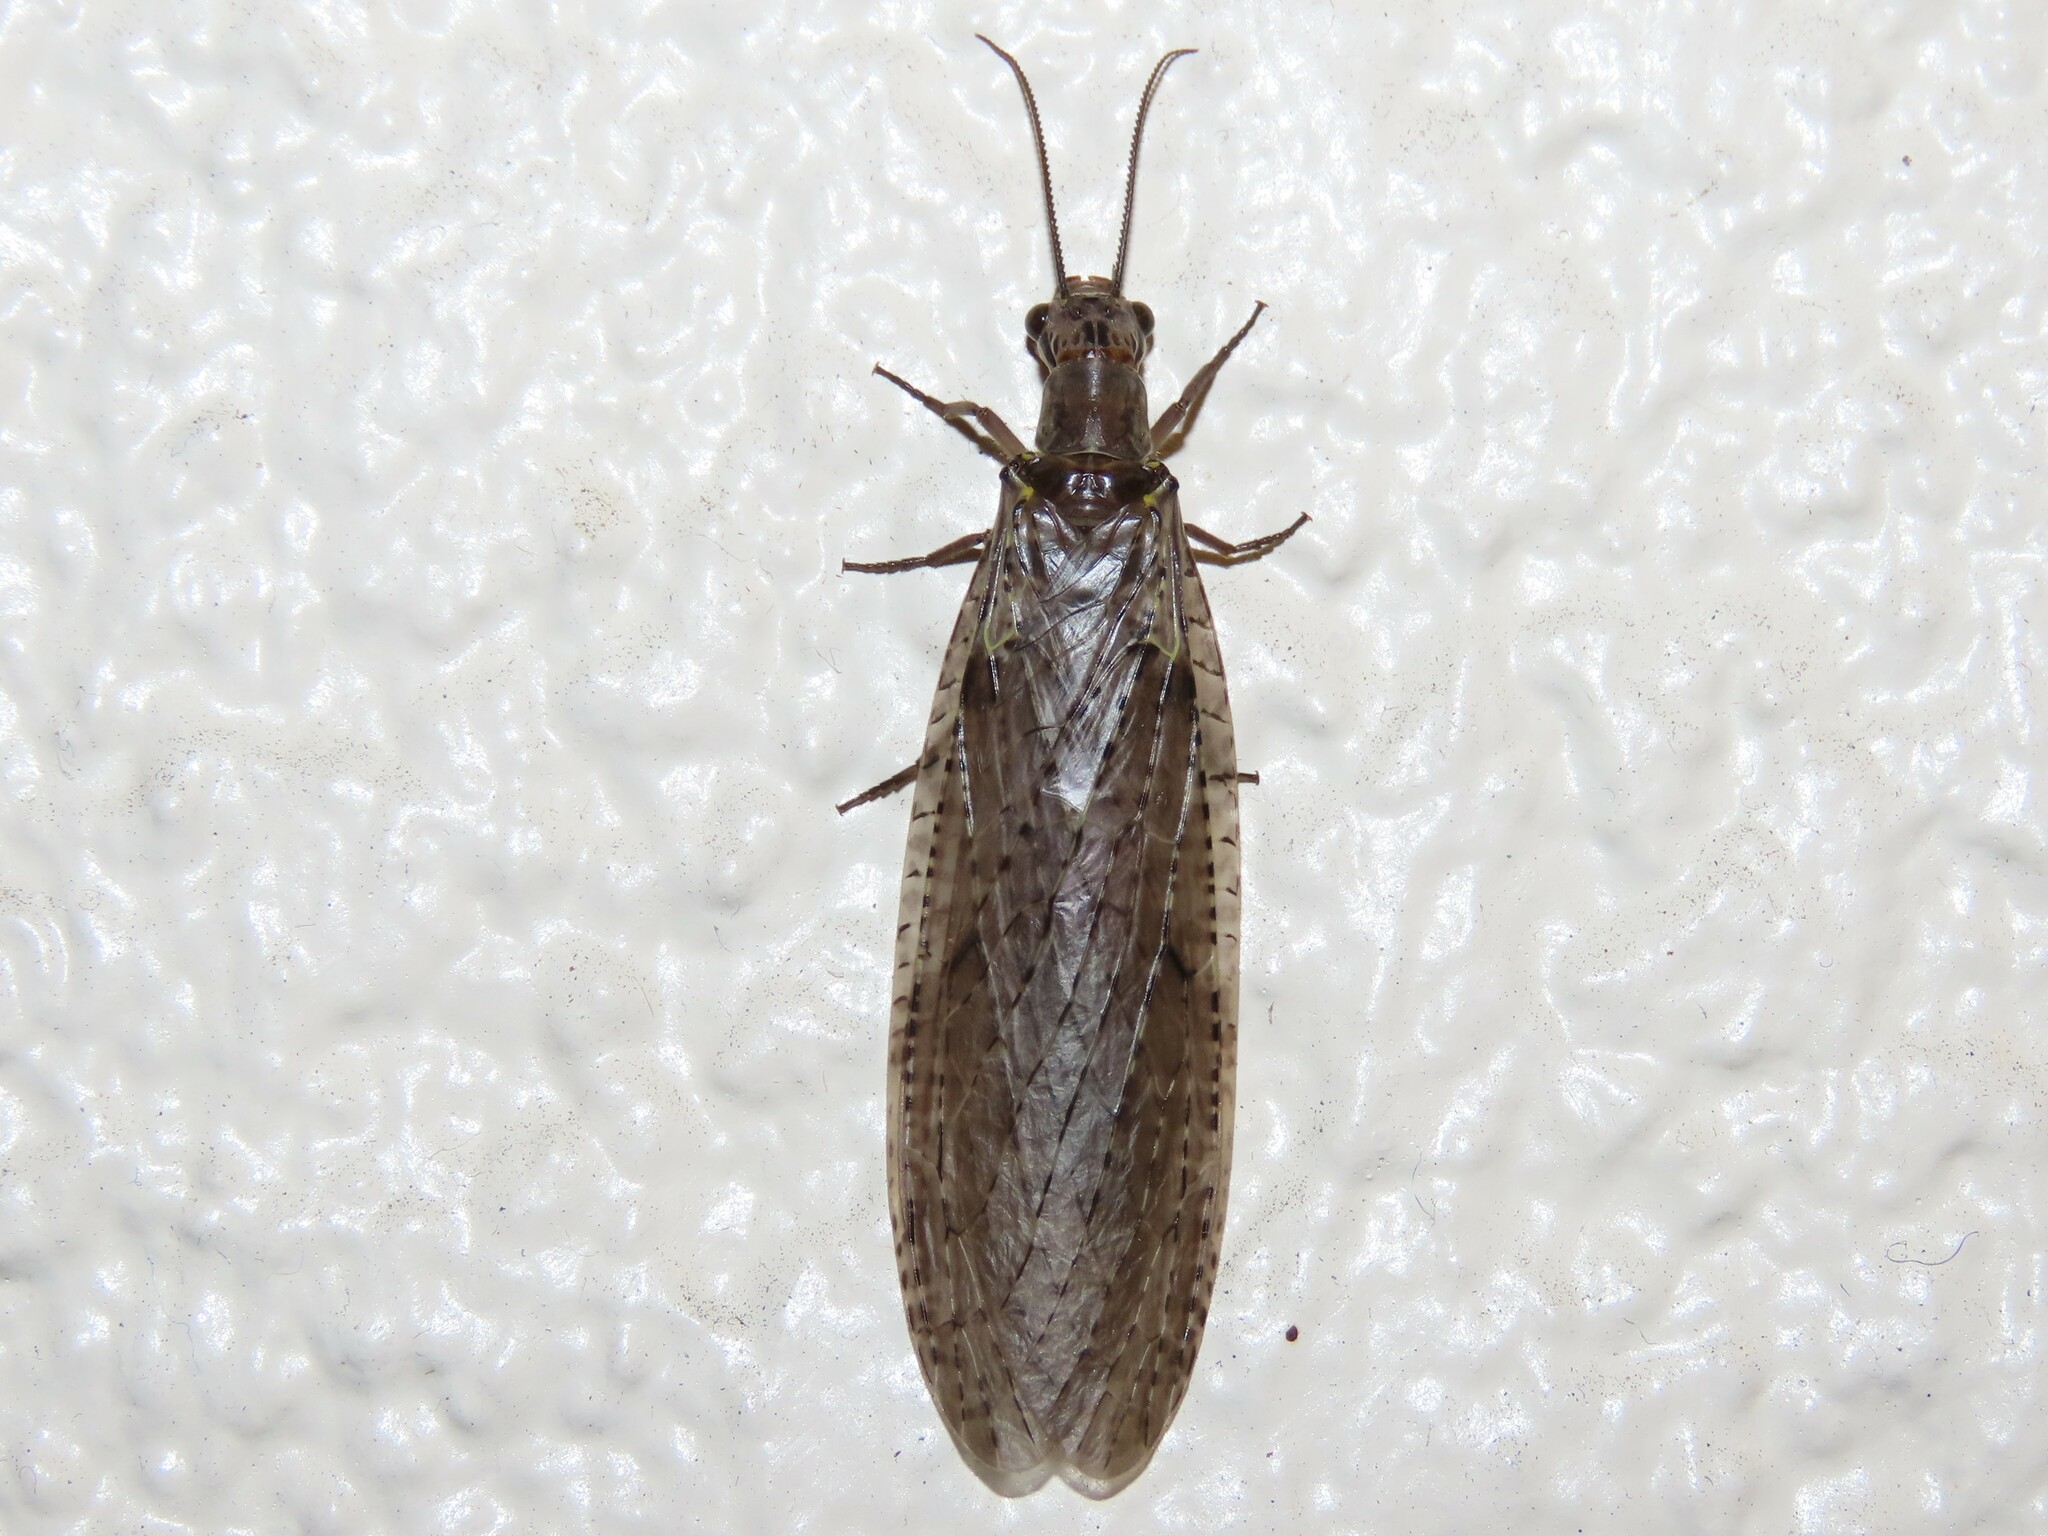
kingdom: Animalia
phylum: Arthropoda
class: Insecta
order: Megaloptera
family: Corydalidae
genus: Chauliodes
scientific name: Chauliodes rastricornis
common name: Spring fishfly
